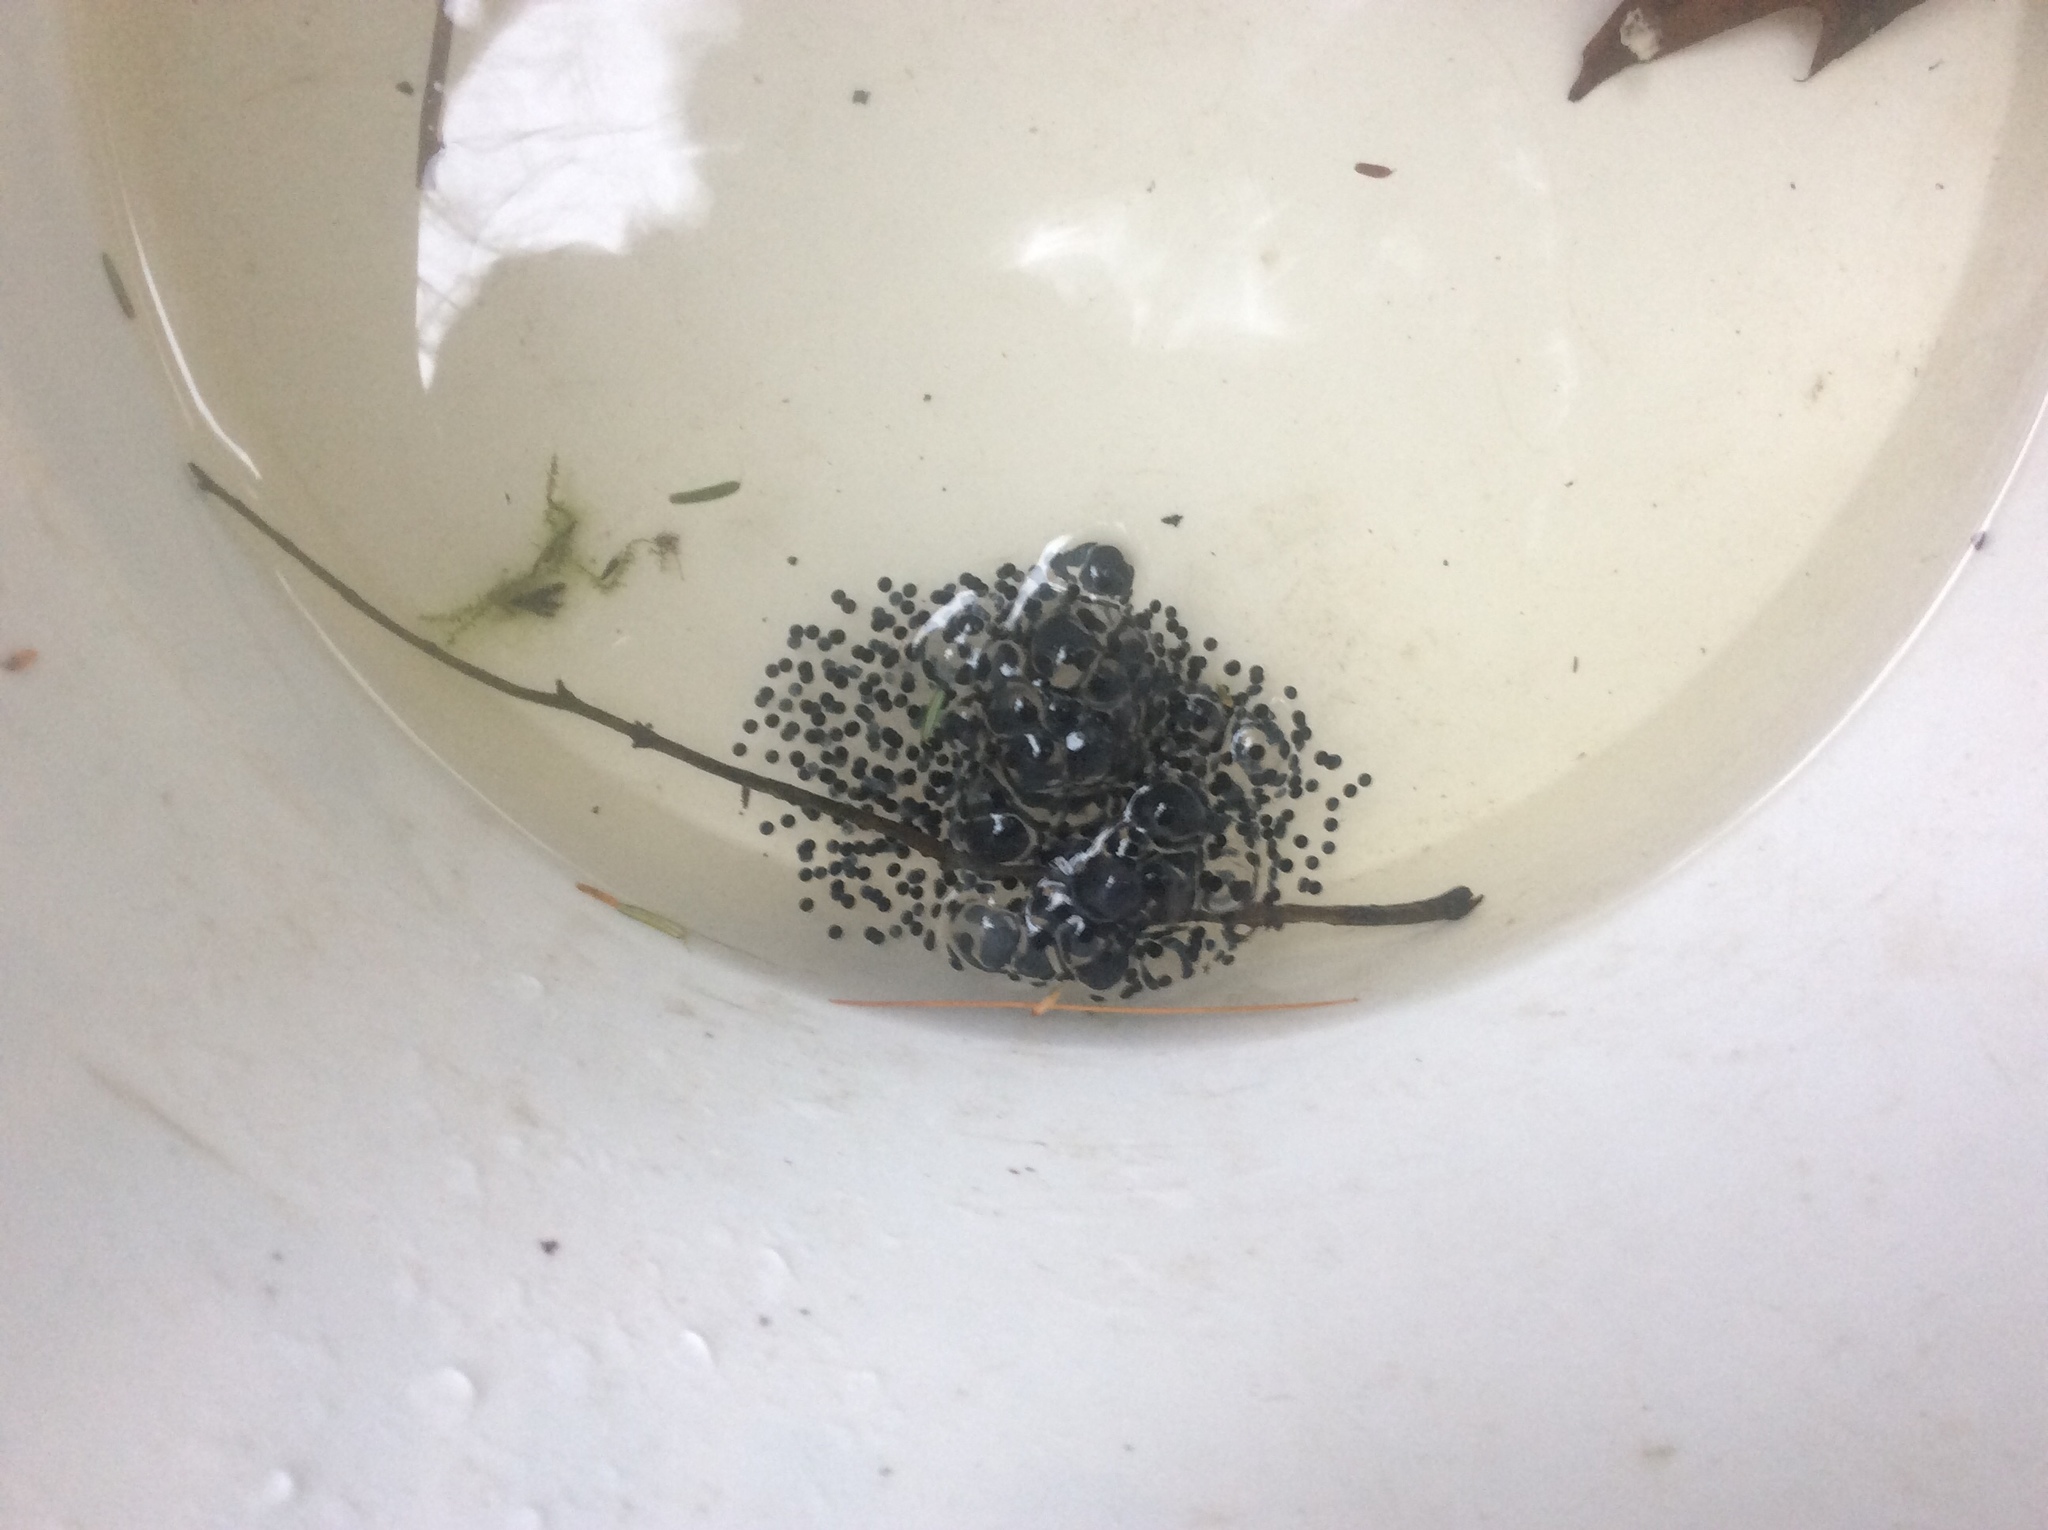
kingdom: Animalia
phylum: Chordata
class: Amphibia
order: Anura
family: Ranidae
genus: Lithobates
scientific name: Lithobates sylvaticus
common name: Wood frog
